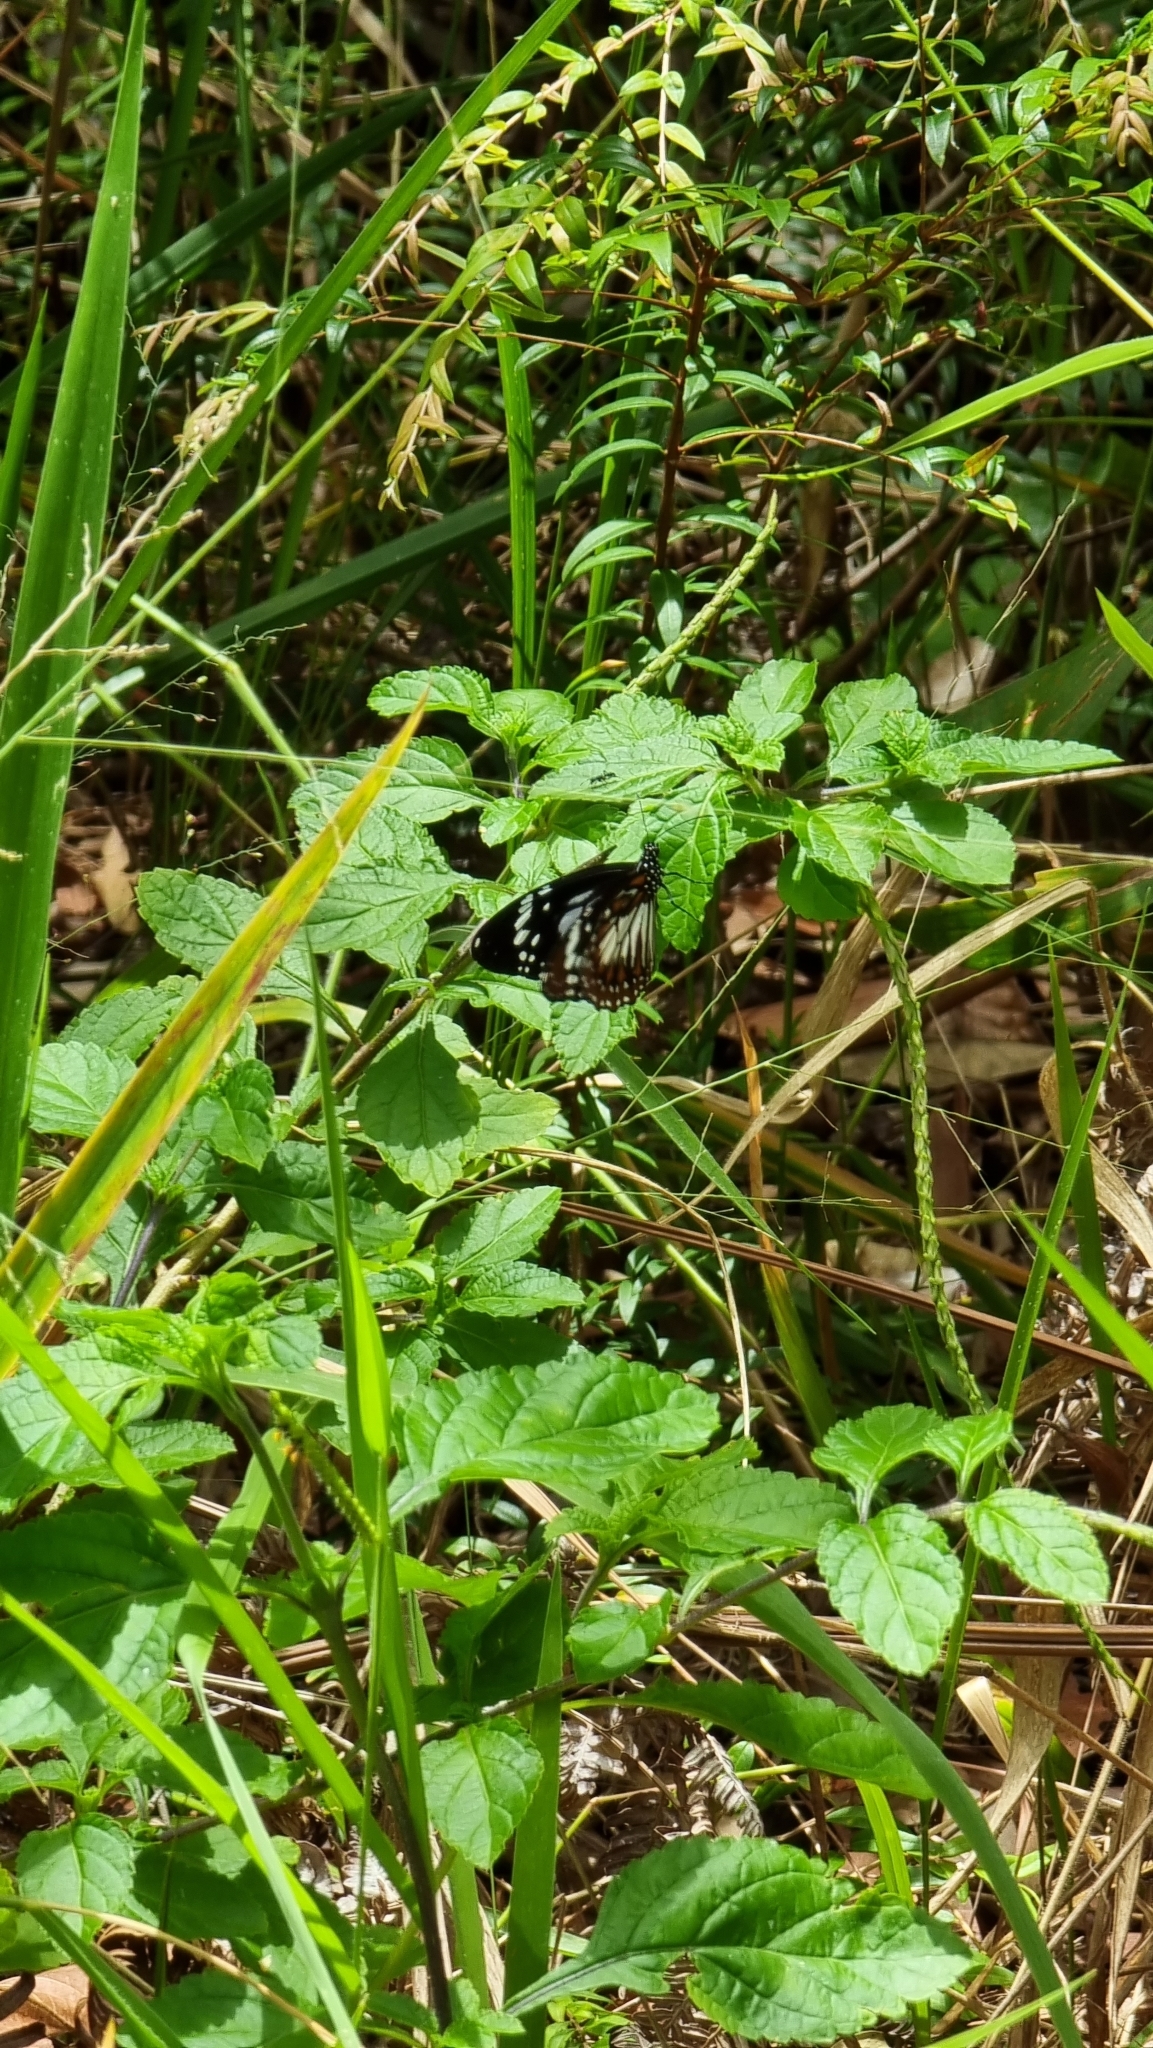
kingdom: Animalia
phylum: Arthropoda
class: Insecta
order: Lepidoptera
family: Nymphalidae
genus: Danaus
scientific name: Danaus affinis
